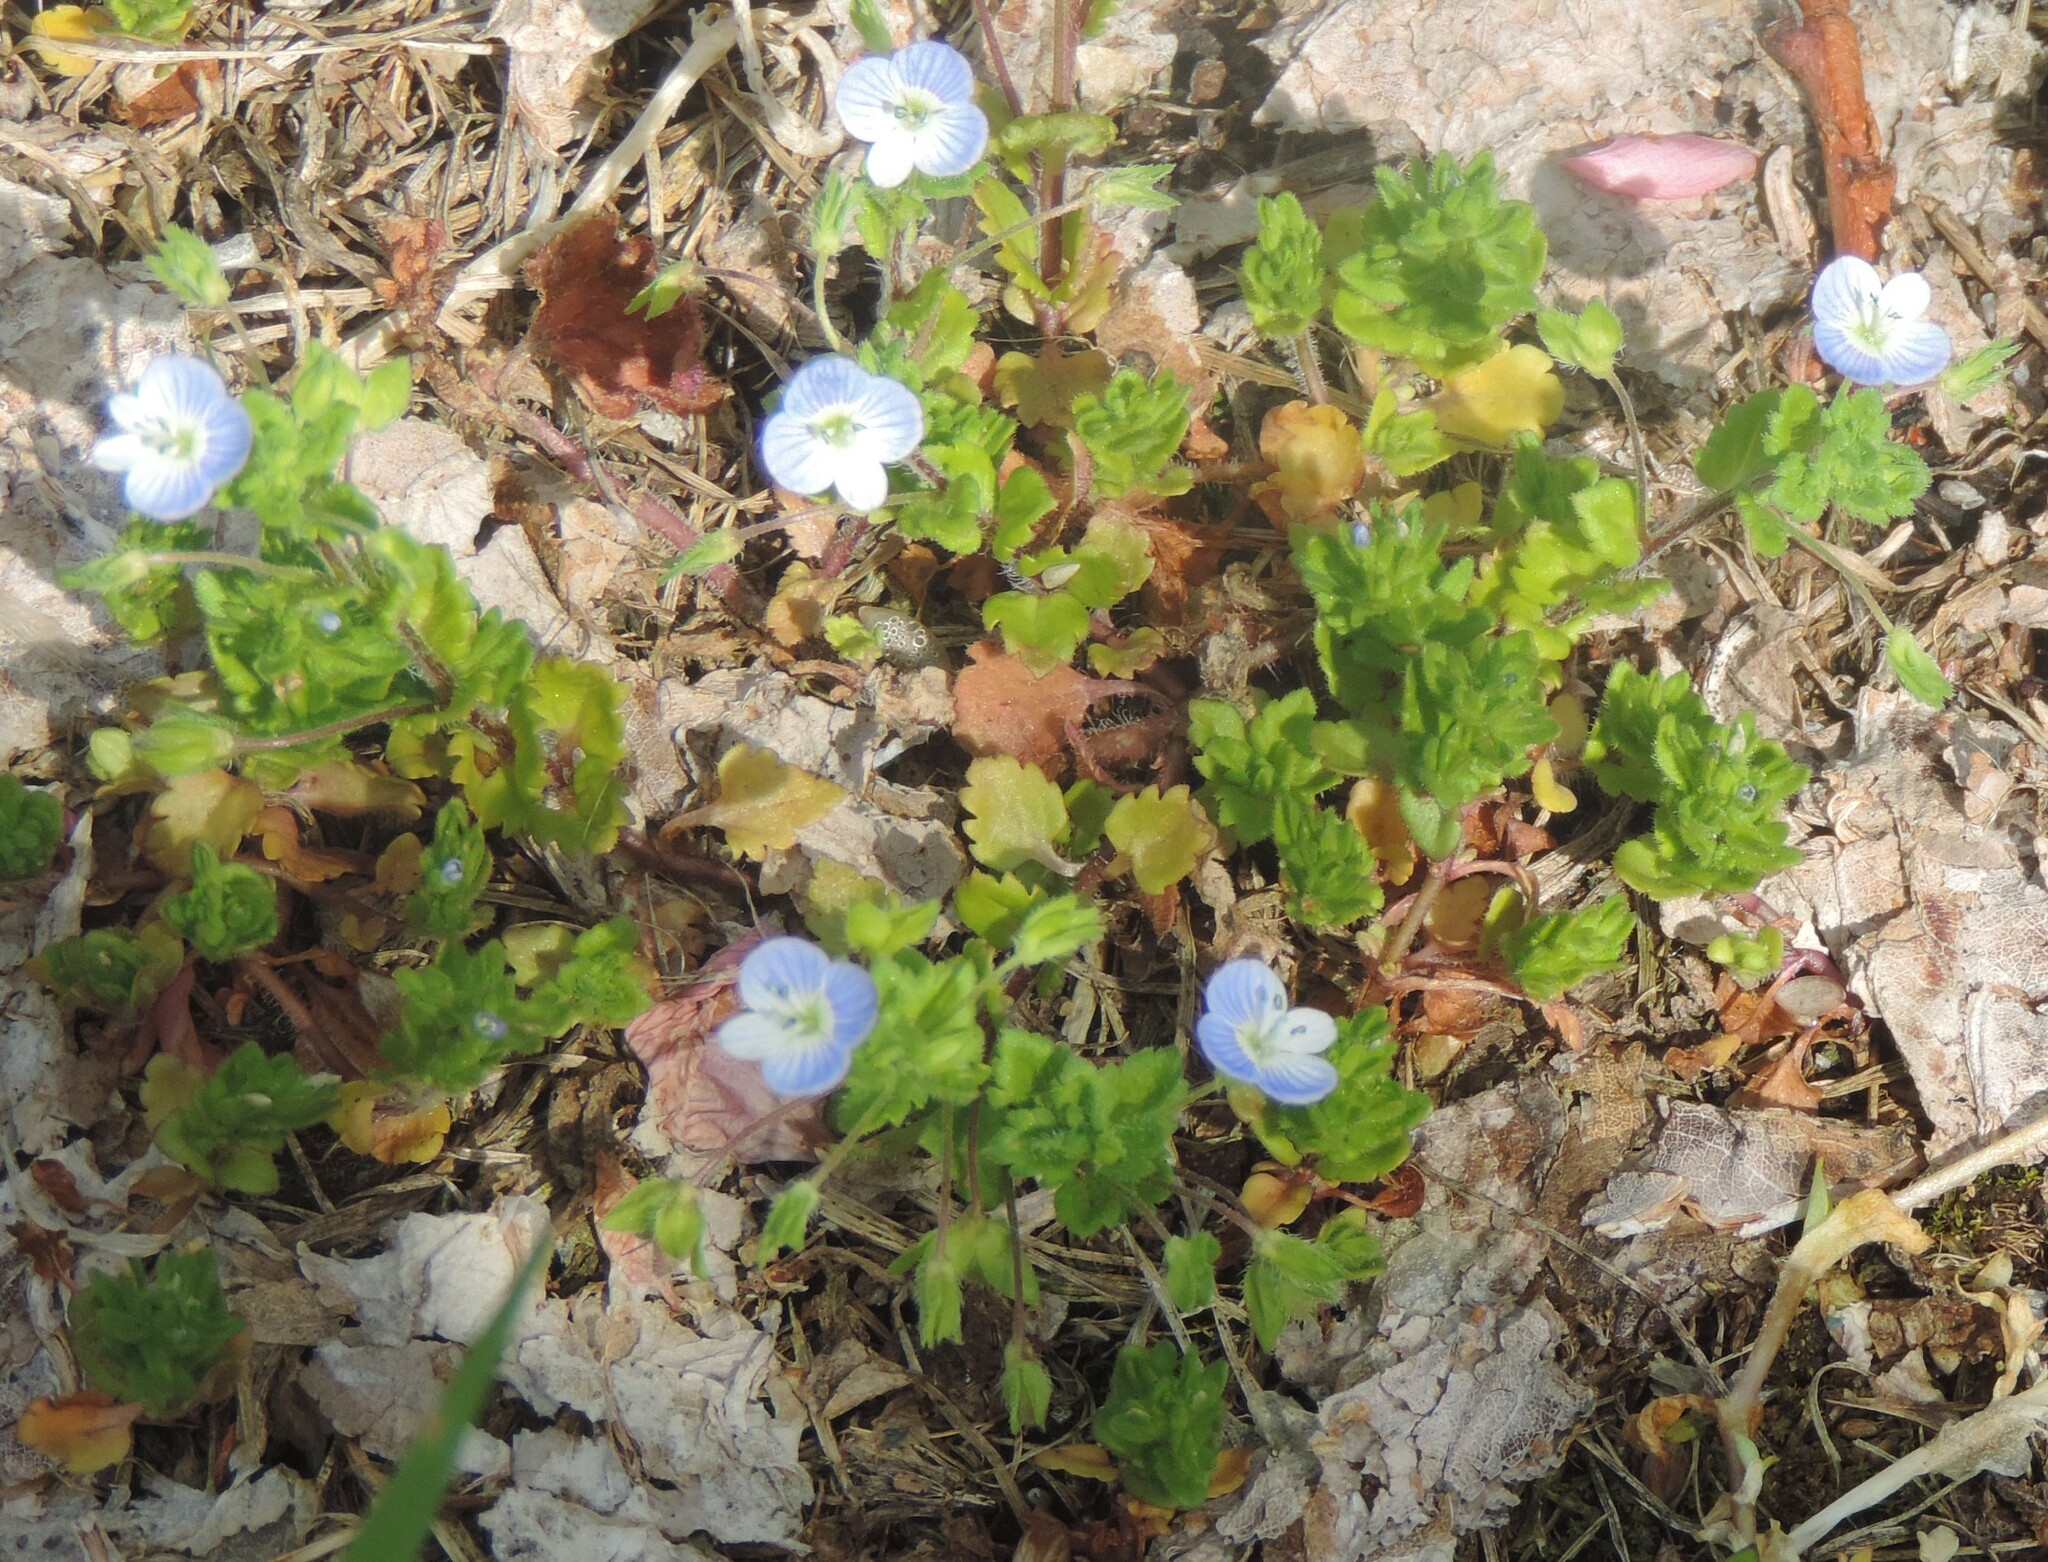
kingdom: Plantae
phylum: Tracheophyta
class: Magnoliopsida
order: Lamiales
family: Plantaginaceae
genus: Veronica
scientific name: Veronica persica
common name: Common field-speedwell
